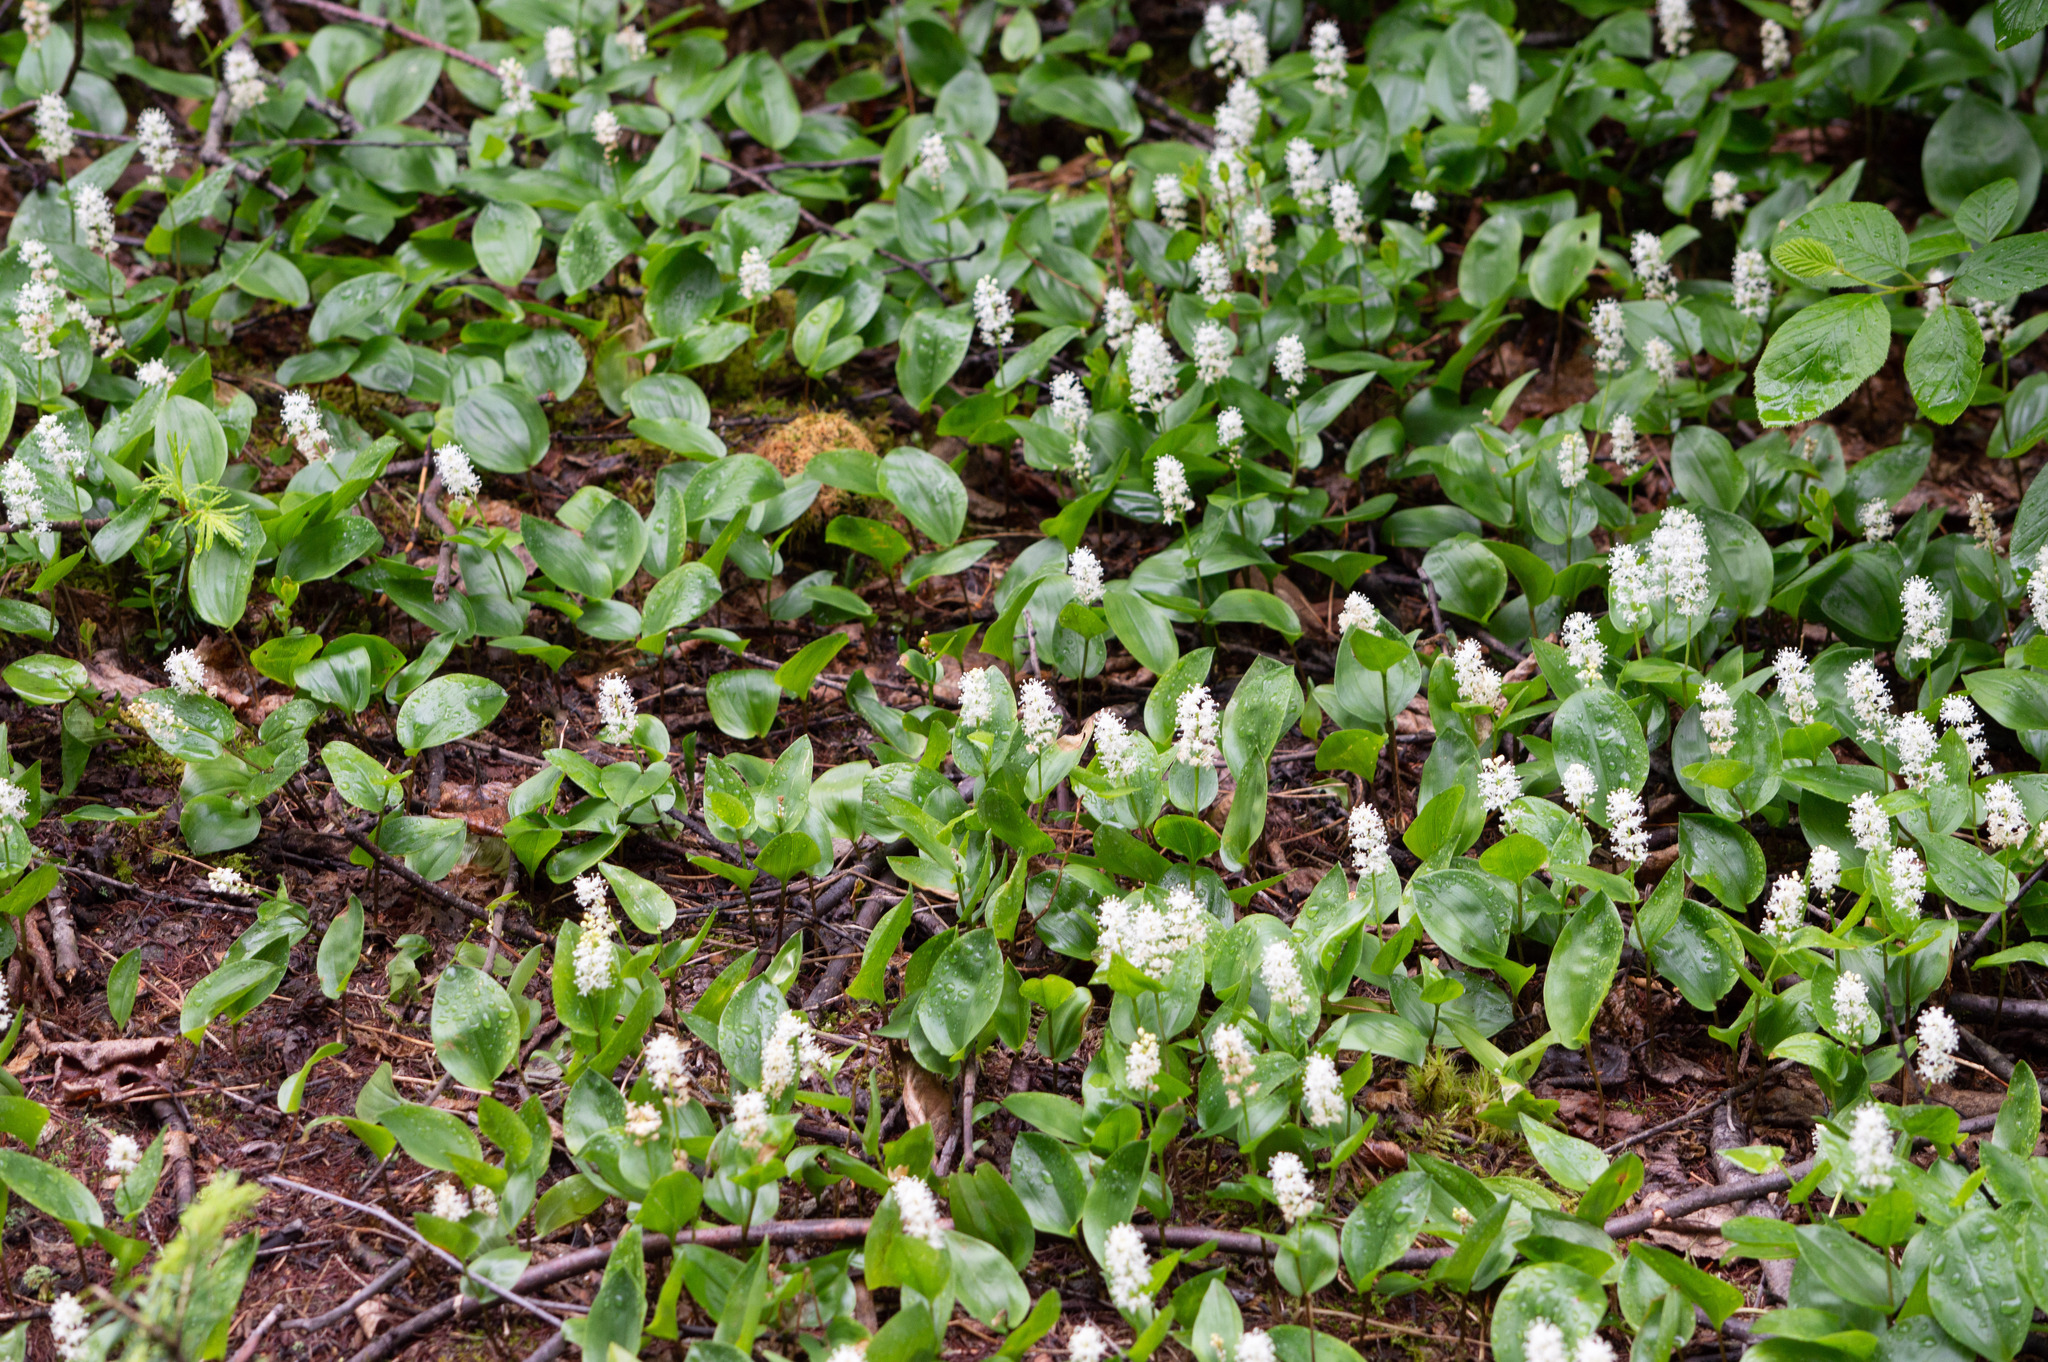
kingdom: Plantae
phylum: Tracheophyta
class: Liliopsida
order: Asparagales
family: Asparagaceae
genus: Maianthemum
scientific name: Maianthemum canadense
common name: False lily-of-the-valley
